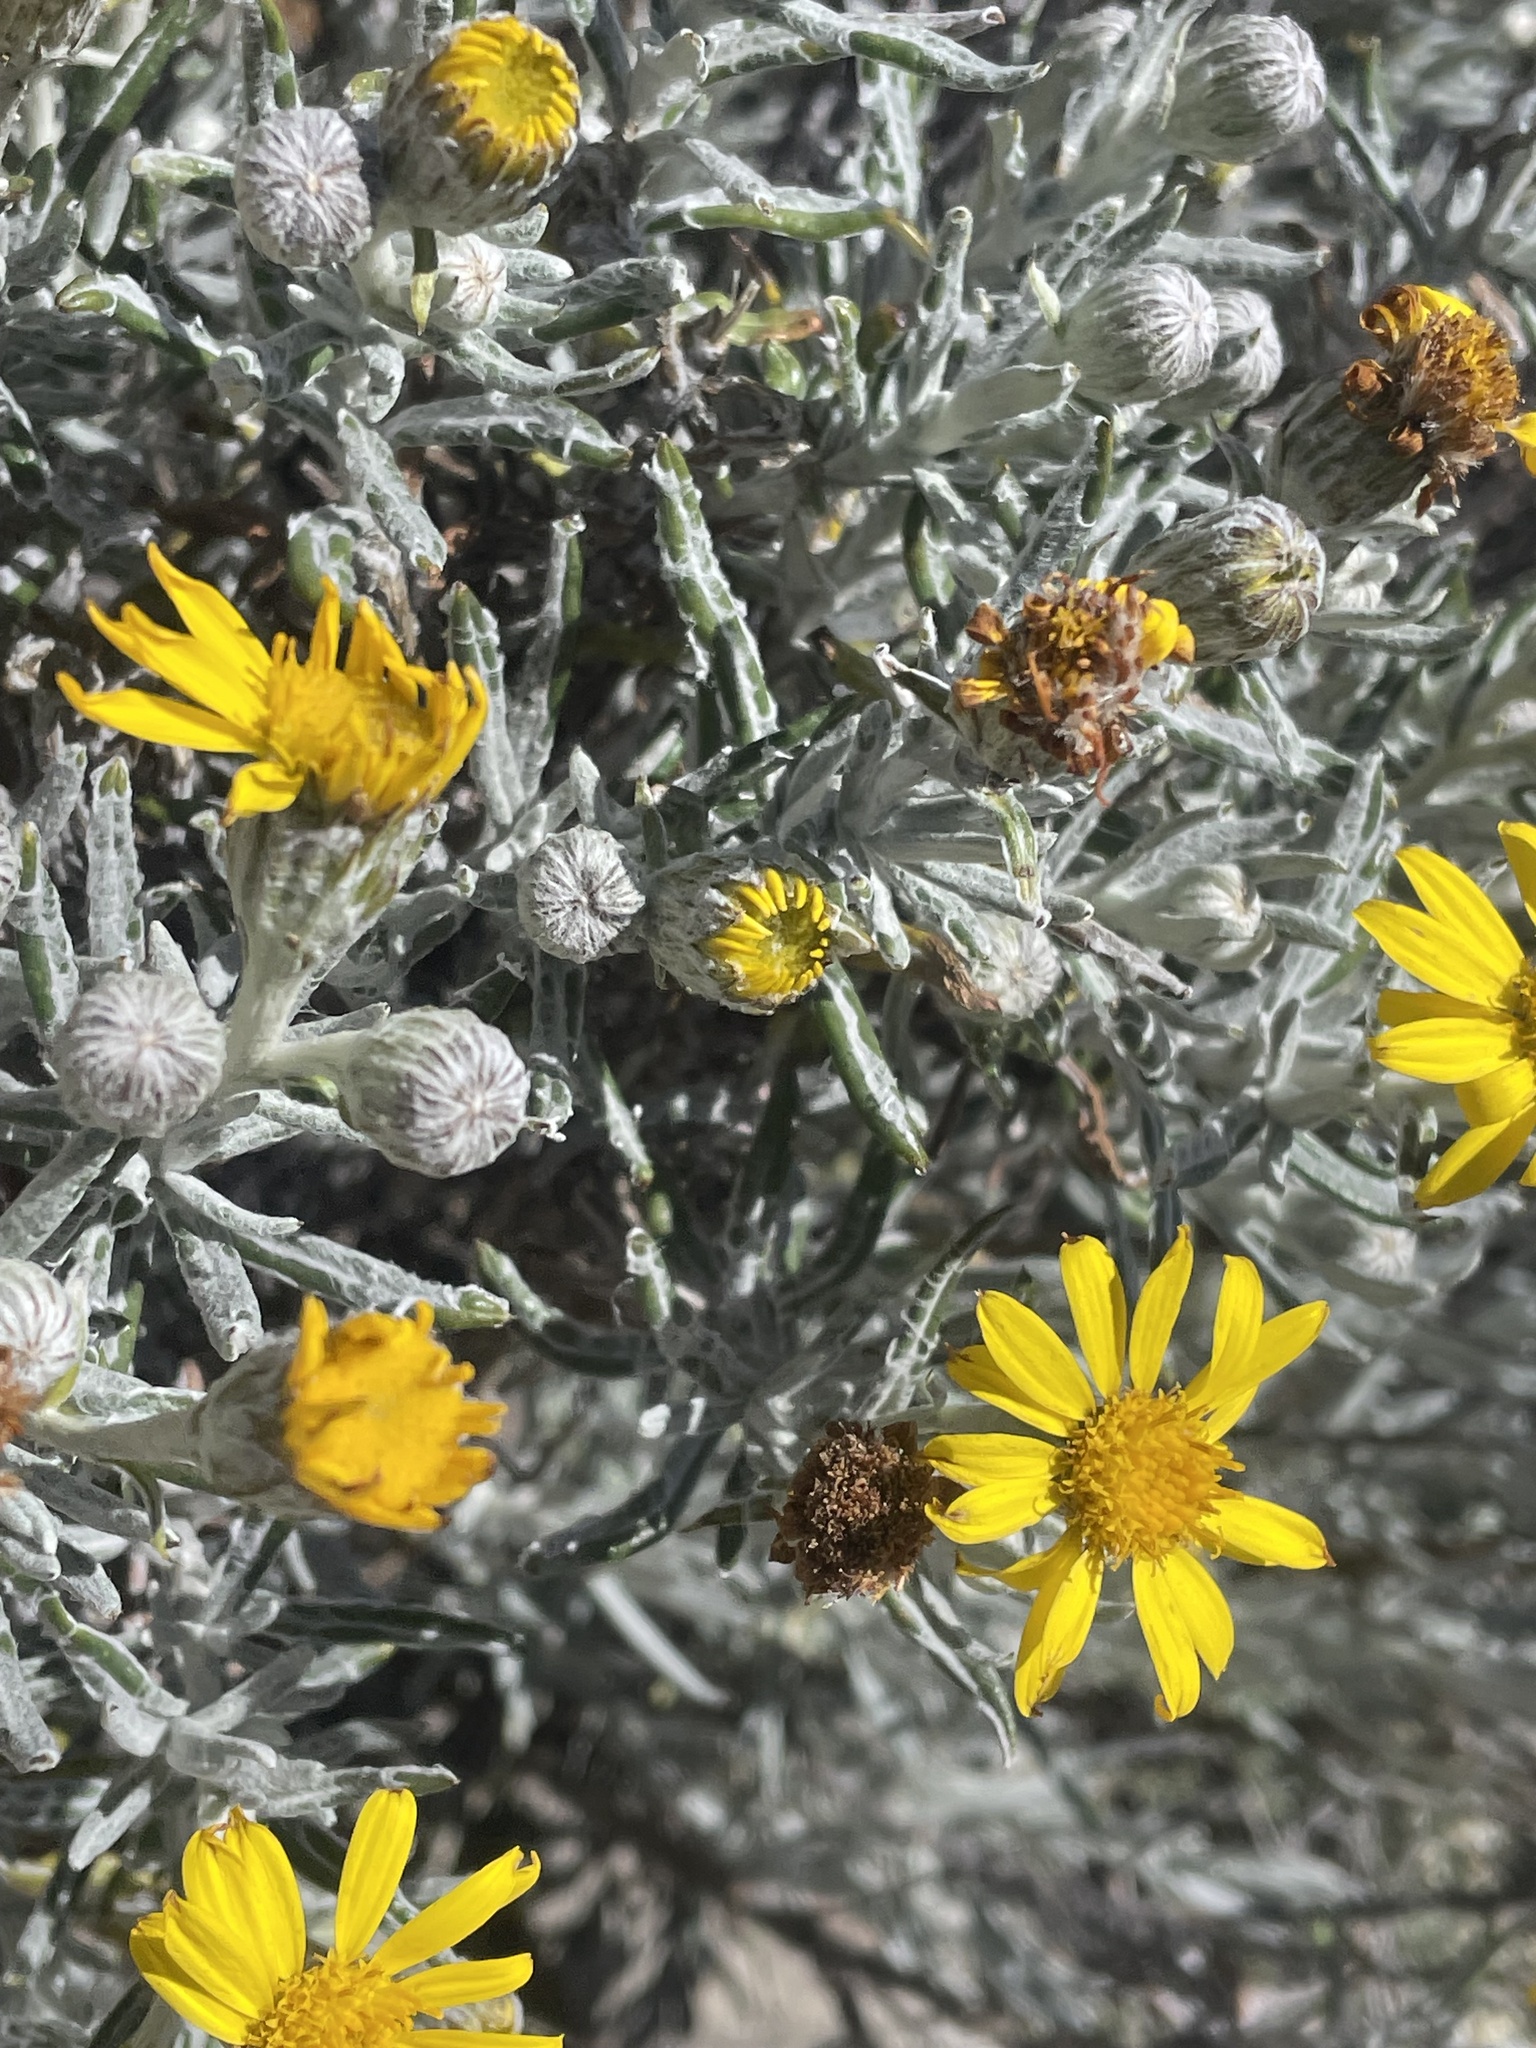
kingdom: Plantae
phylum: Tracheophyta
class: Magnoliopsida
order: Asterales
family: Asteraceae
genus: Senecio
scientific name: Senecio mairetianus
